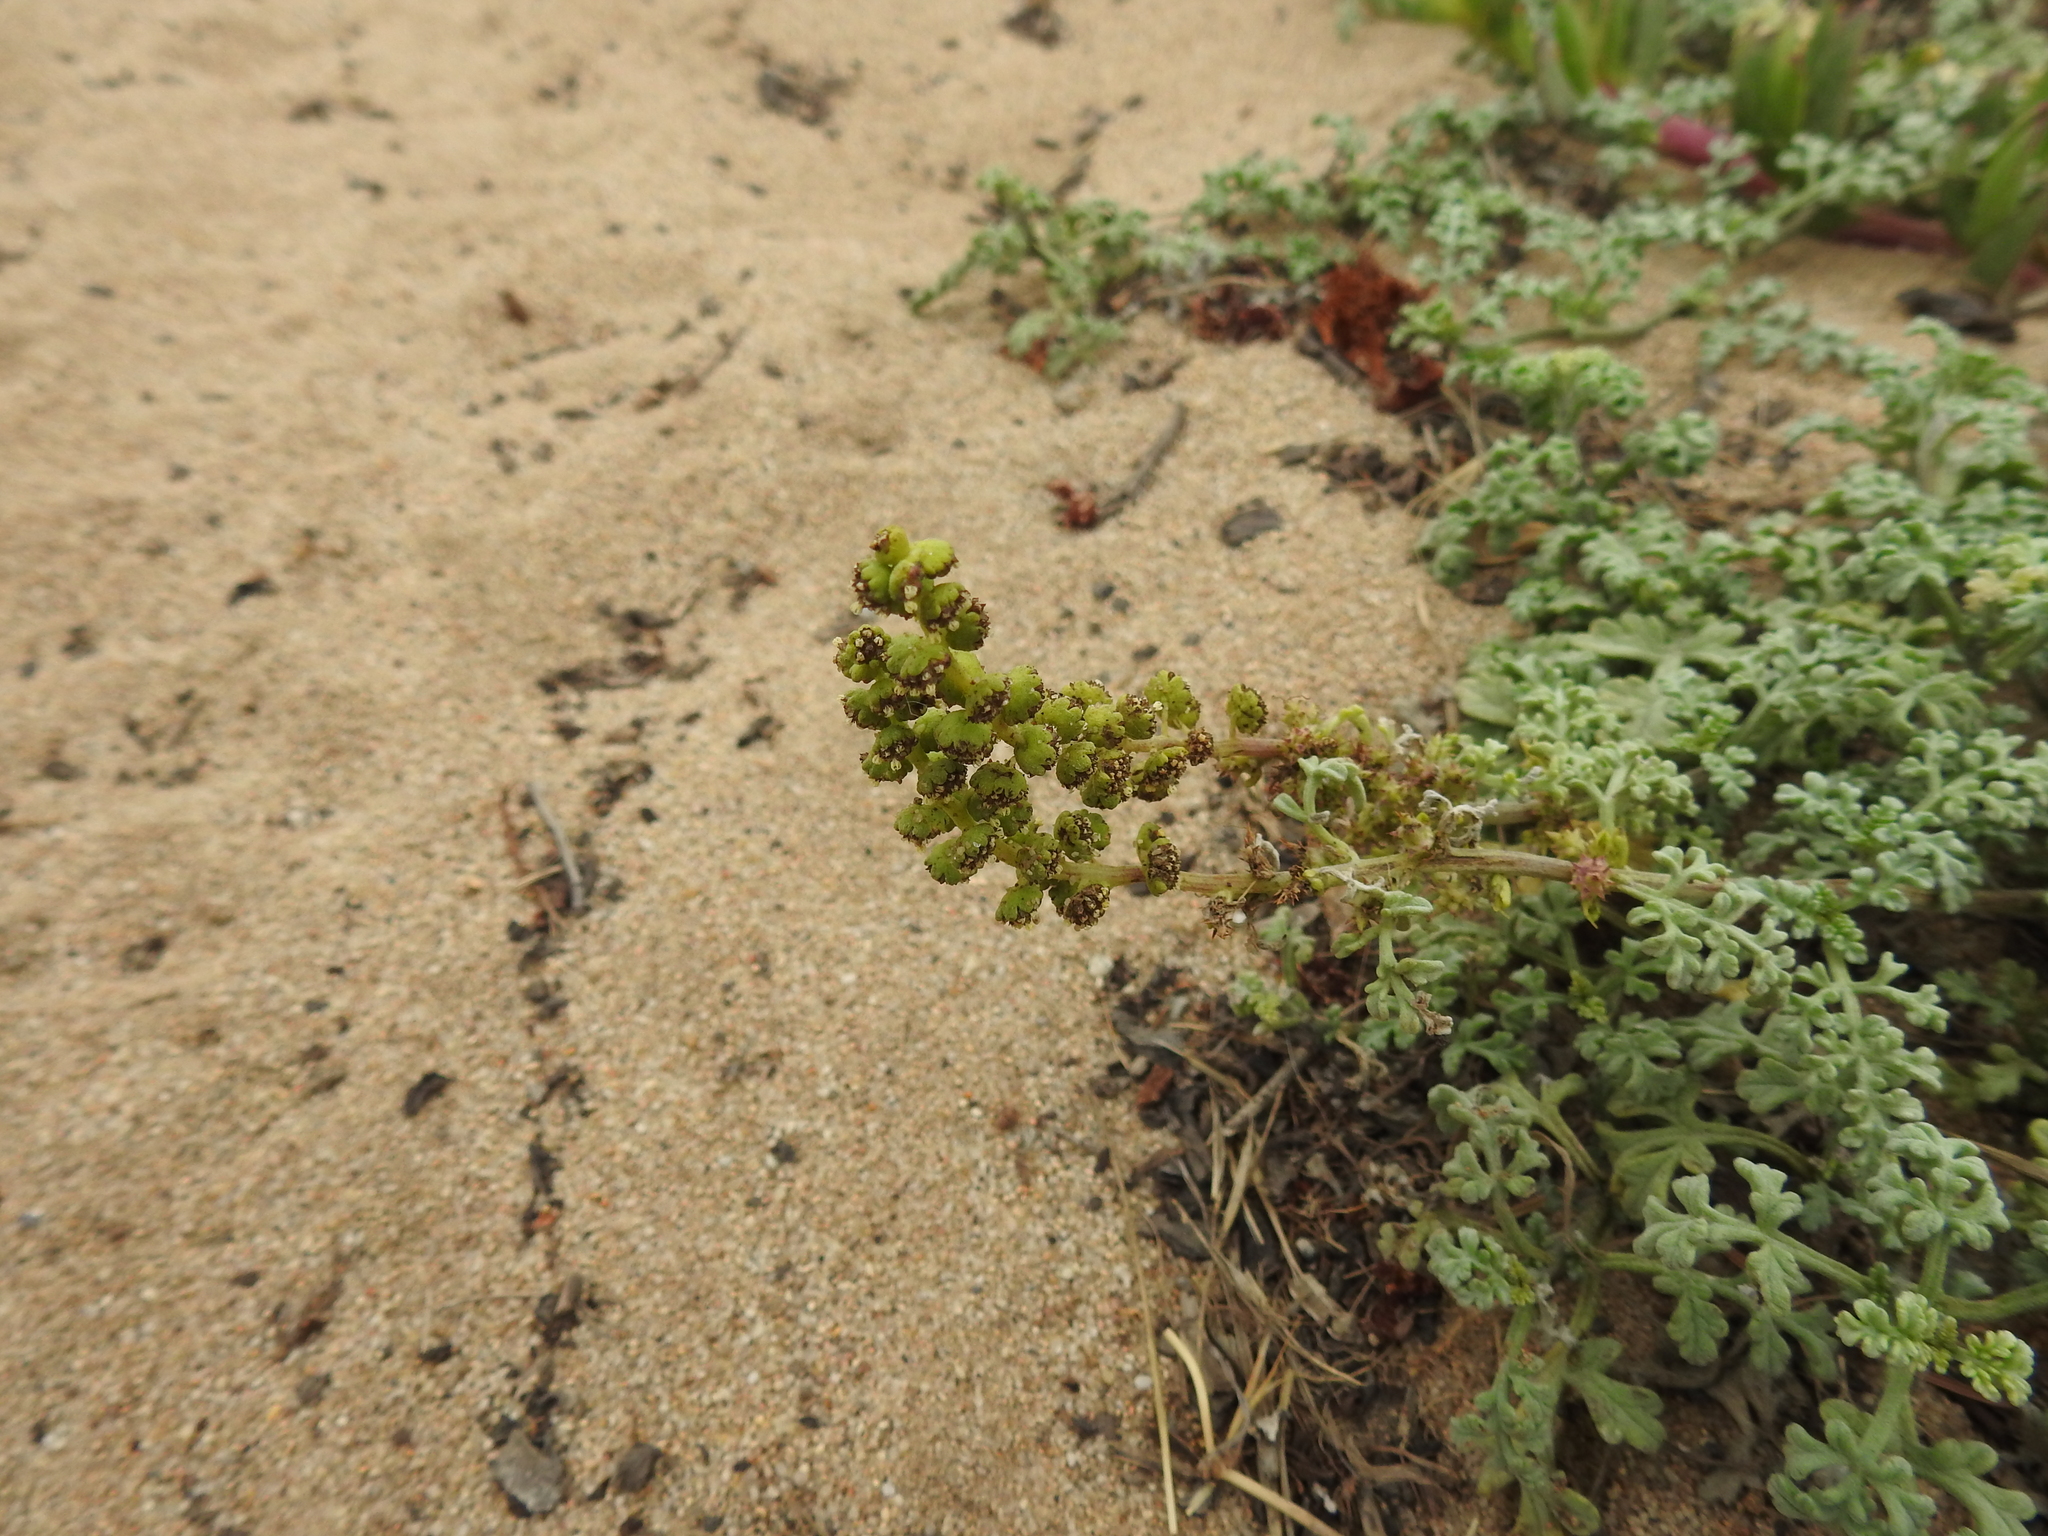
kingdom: Plantae
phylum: Tracheophyta
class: Magnoliopsida
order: Asterales
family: Asteraceae
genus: Ambrosia
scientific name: Ambrosia chamissonis
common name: Beachbur
